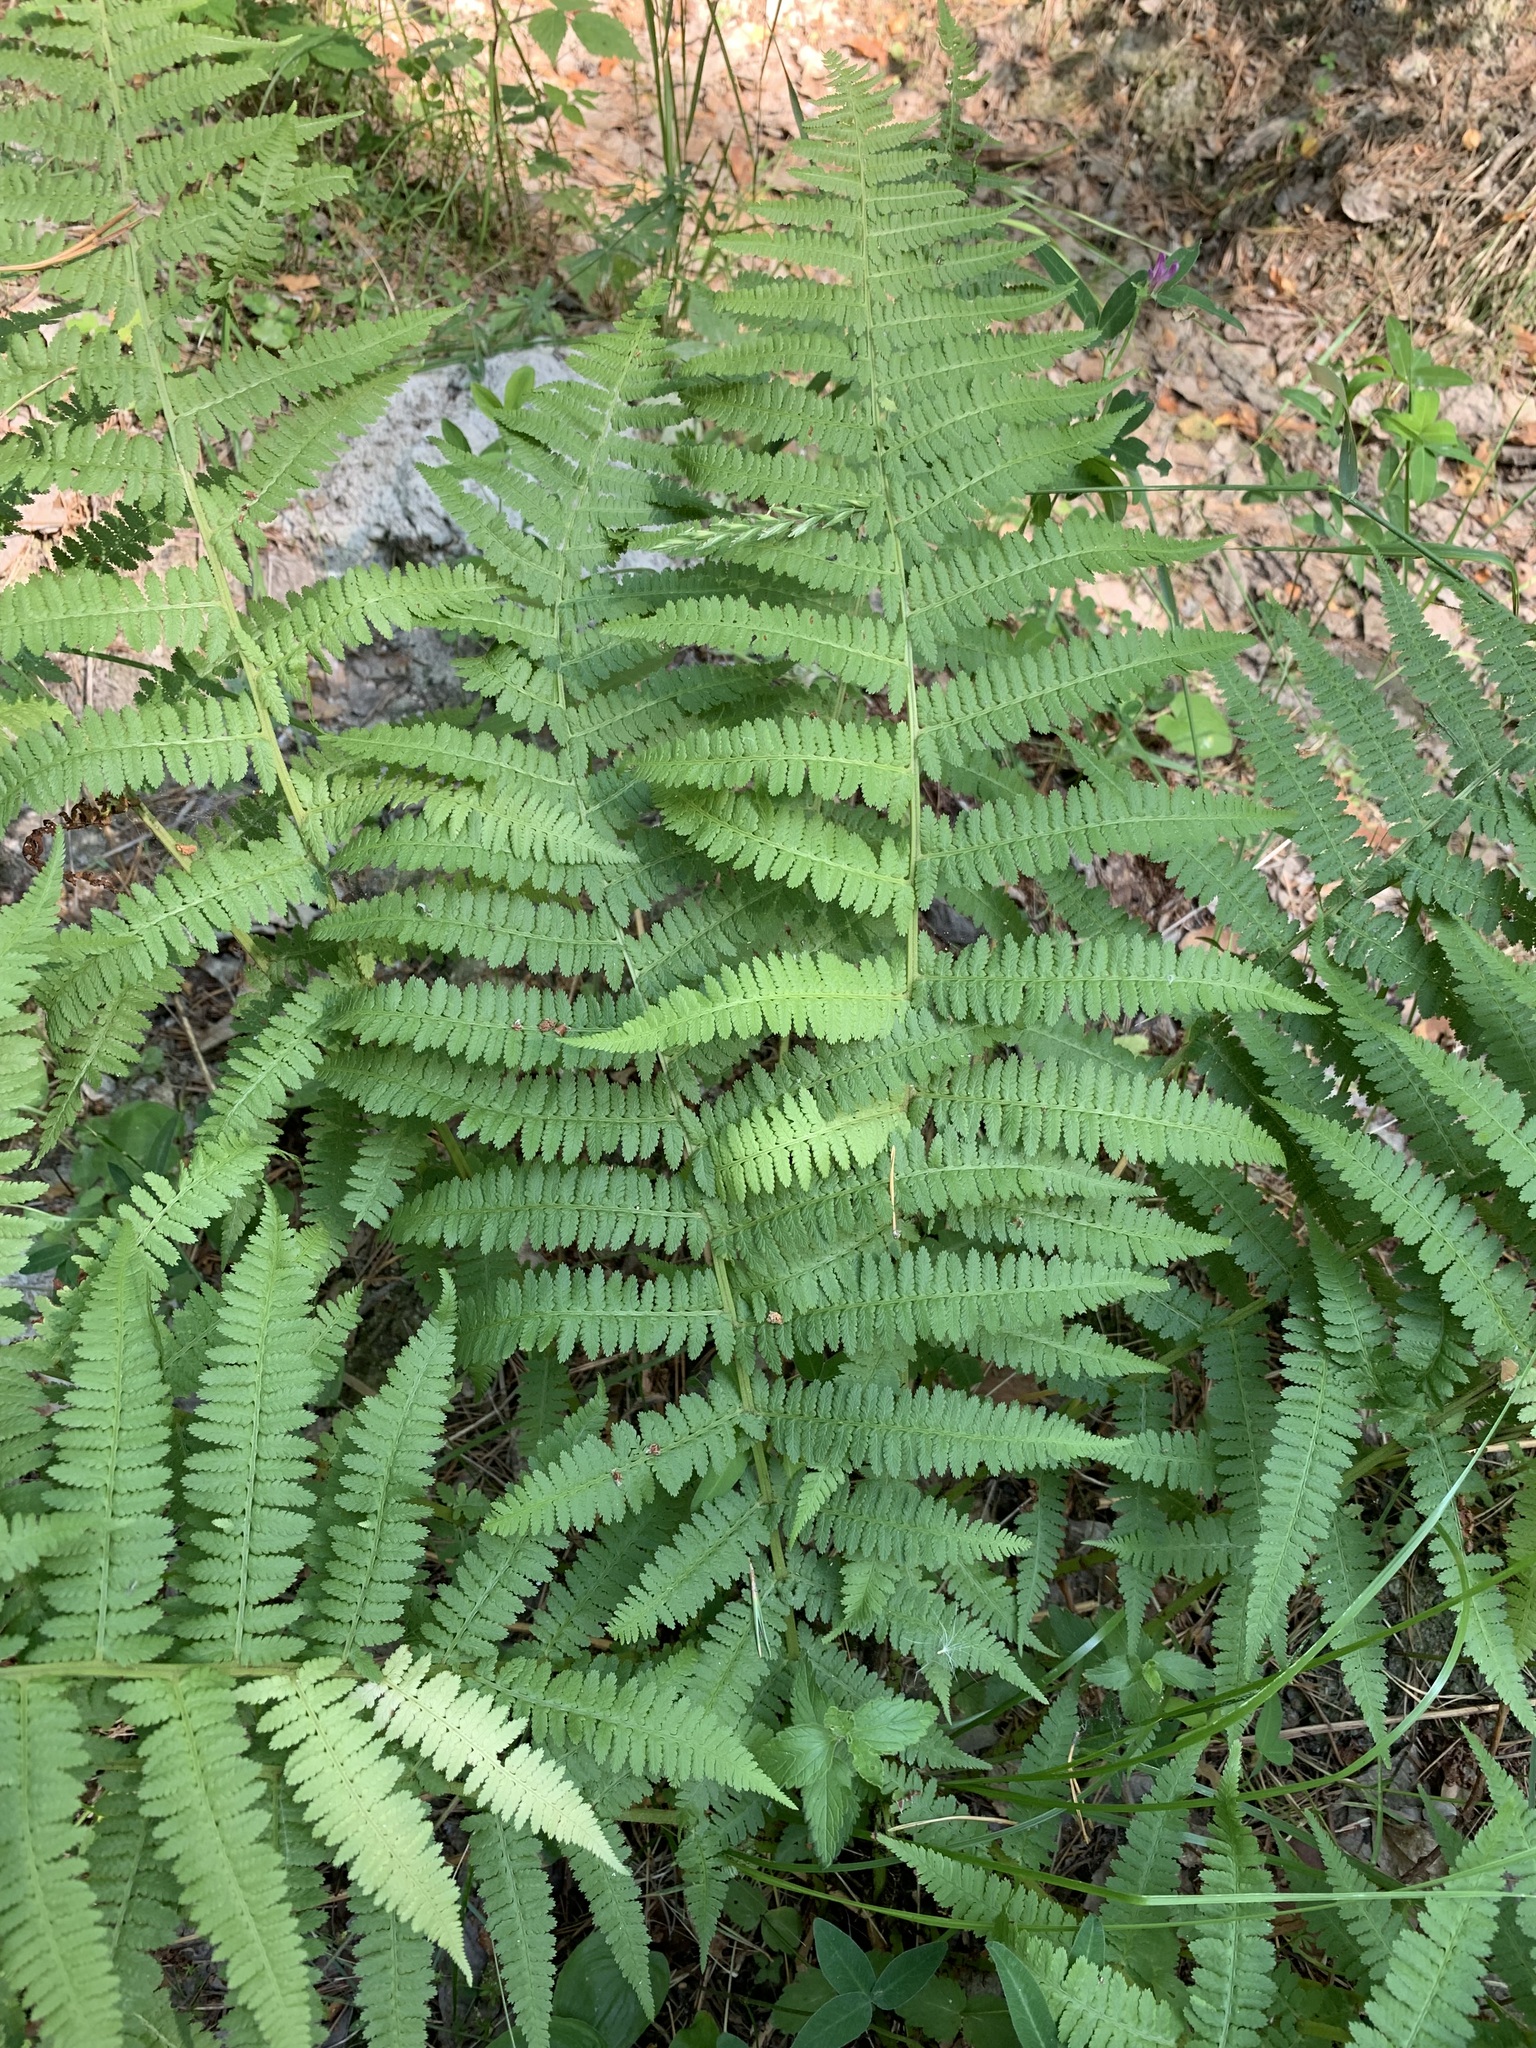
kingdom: Plantae
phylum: Tracheophyta
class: Polypodiopsida
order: Polypodiales
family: Athyriaceae
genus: Athyrium
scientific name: Athyrium filix-femina
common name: Lady fern
